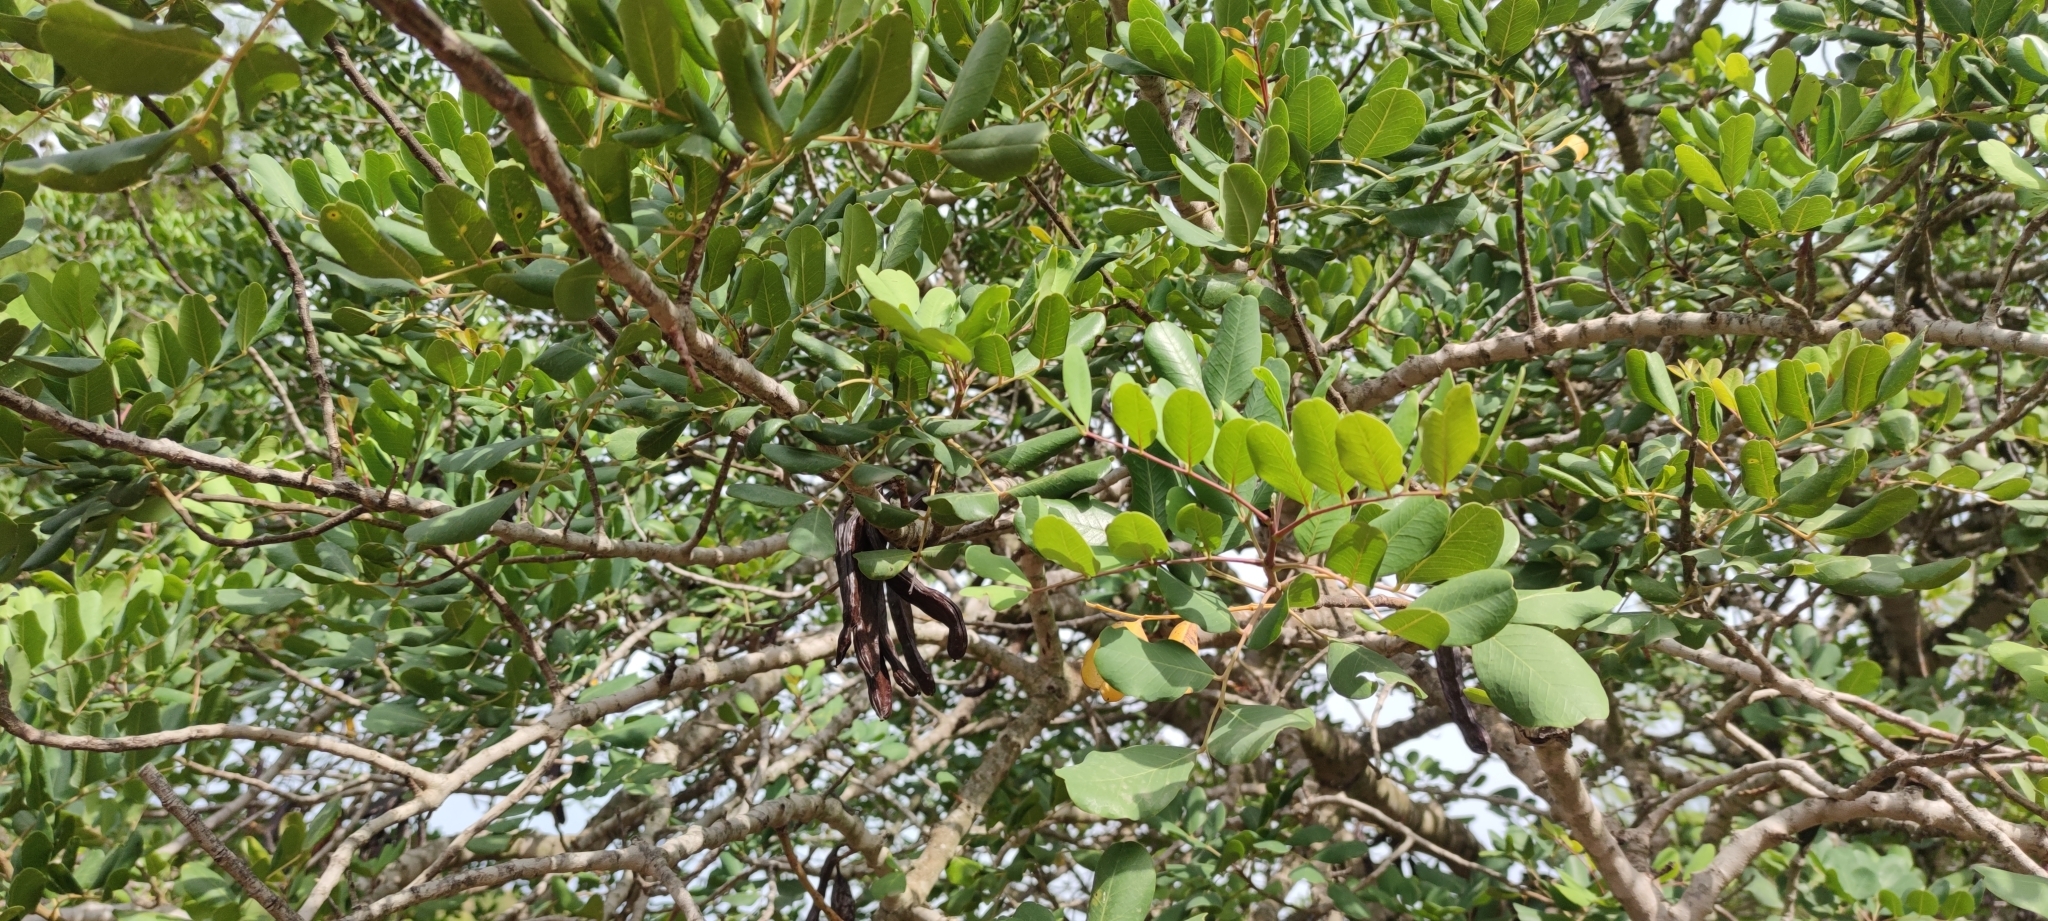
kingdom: Plantae
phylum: Tracheophyta
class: Magnoliopsida
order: Fabales
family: Fabaceae
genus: Ceratonia
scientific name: Ceratonia siliqua
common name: Carob
